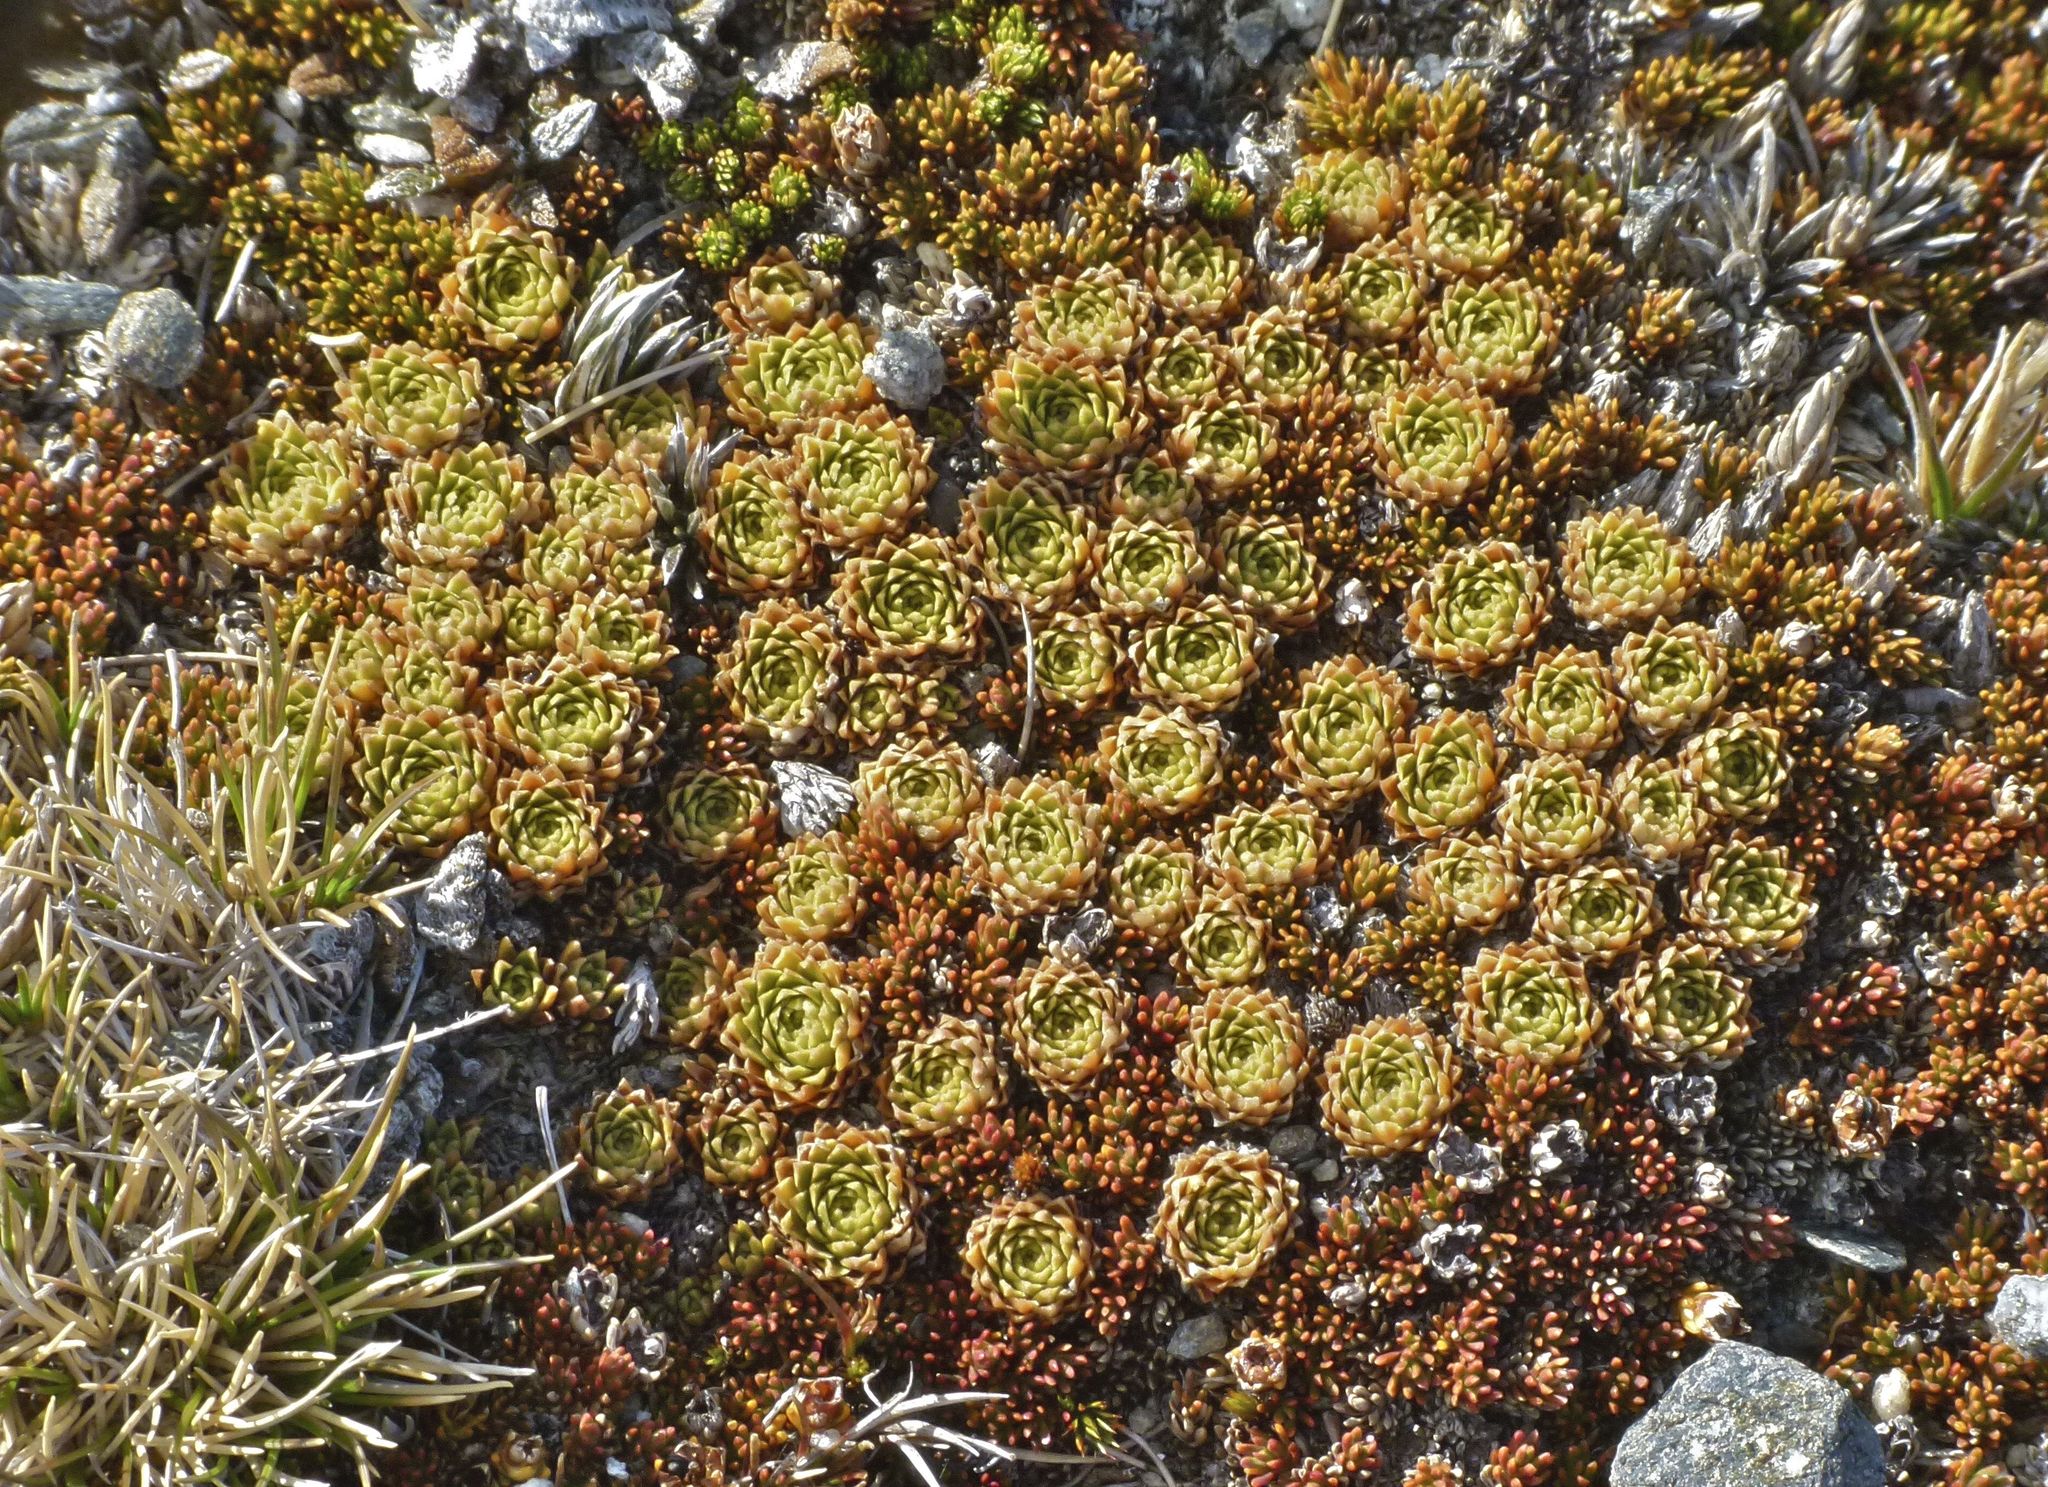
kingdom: Plantae
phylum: Tracheophyta
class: Magnoliopsida
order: Caryophyllales
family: Montiaceae
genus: Hectorella
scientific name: Hectorella caespitosa
